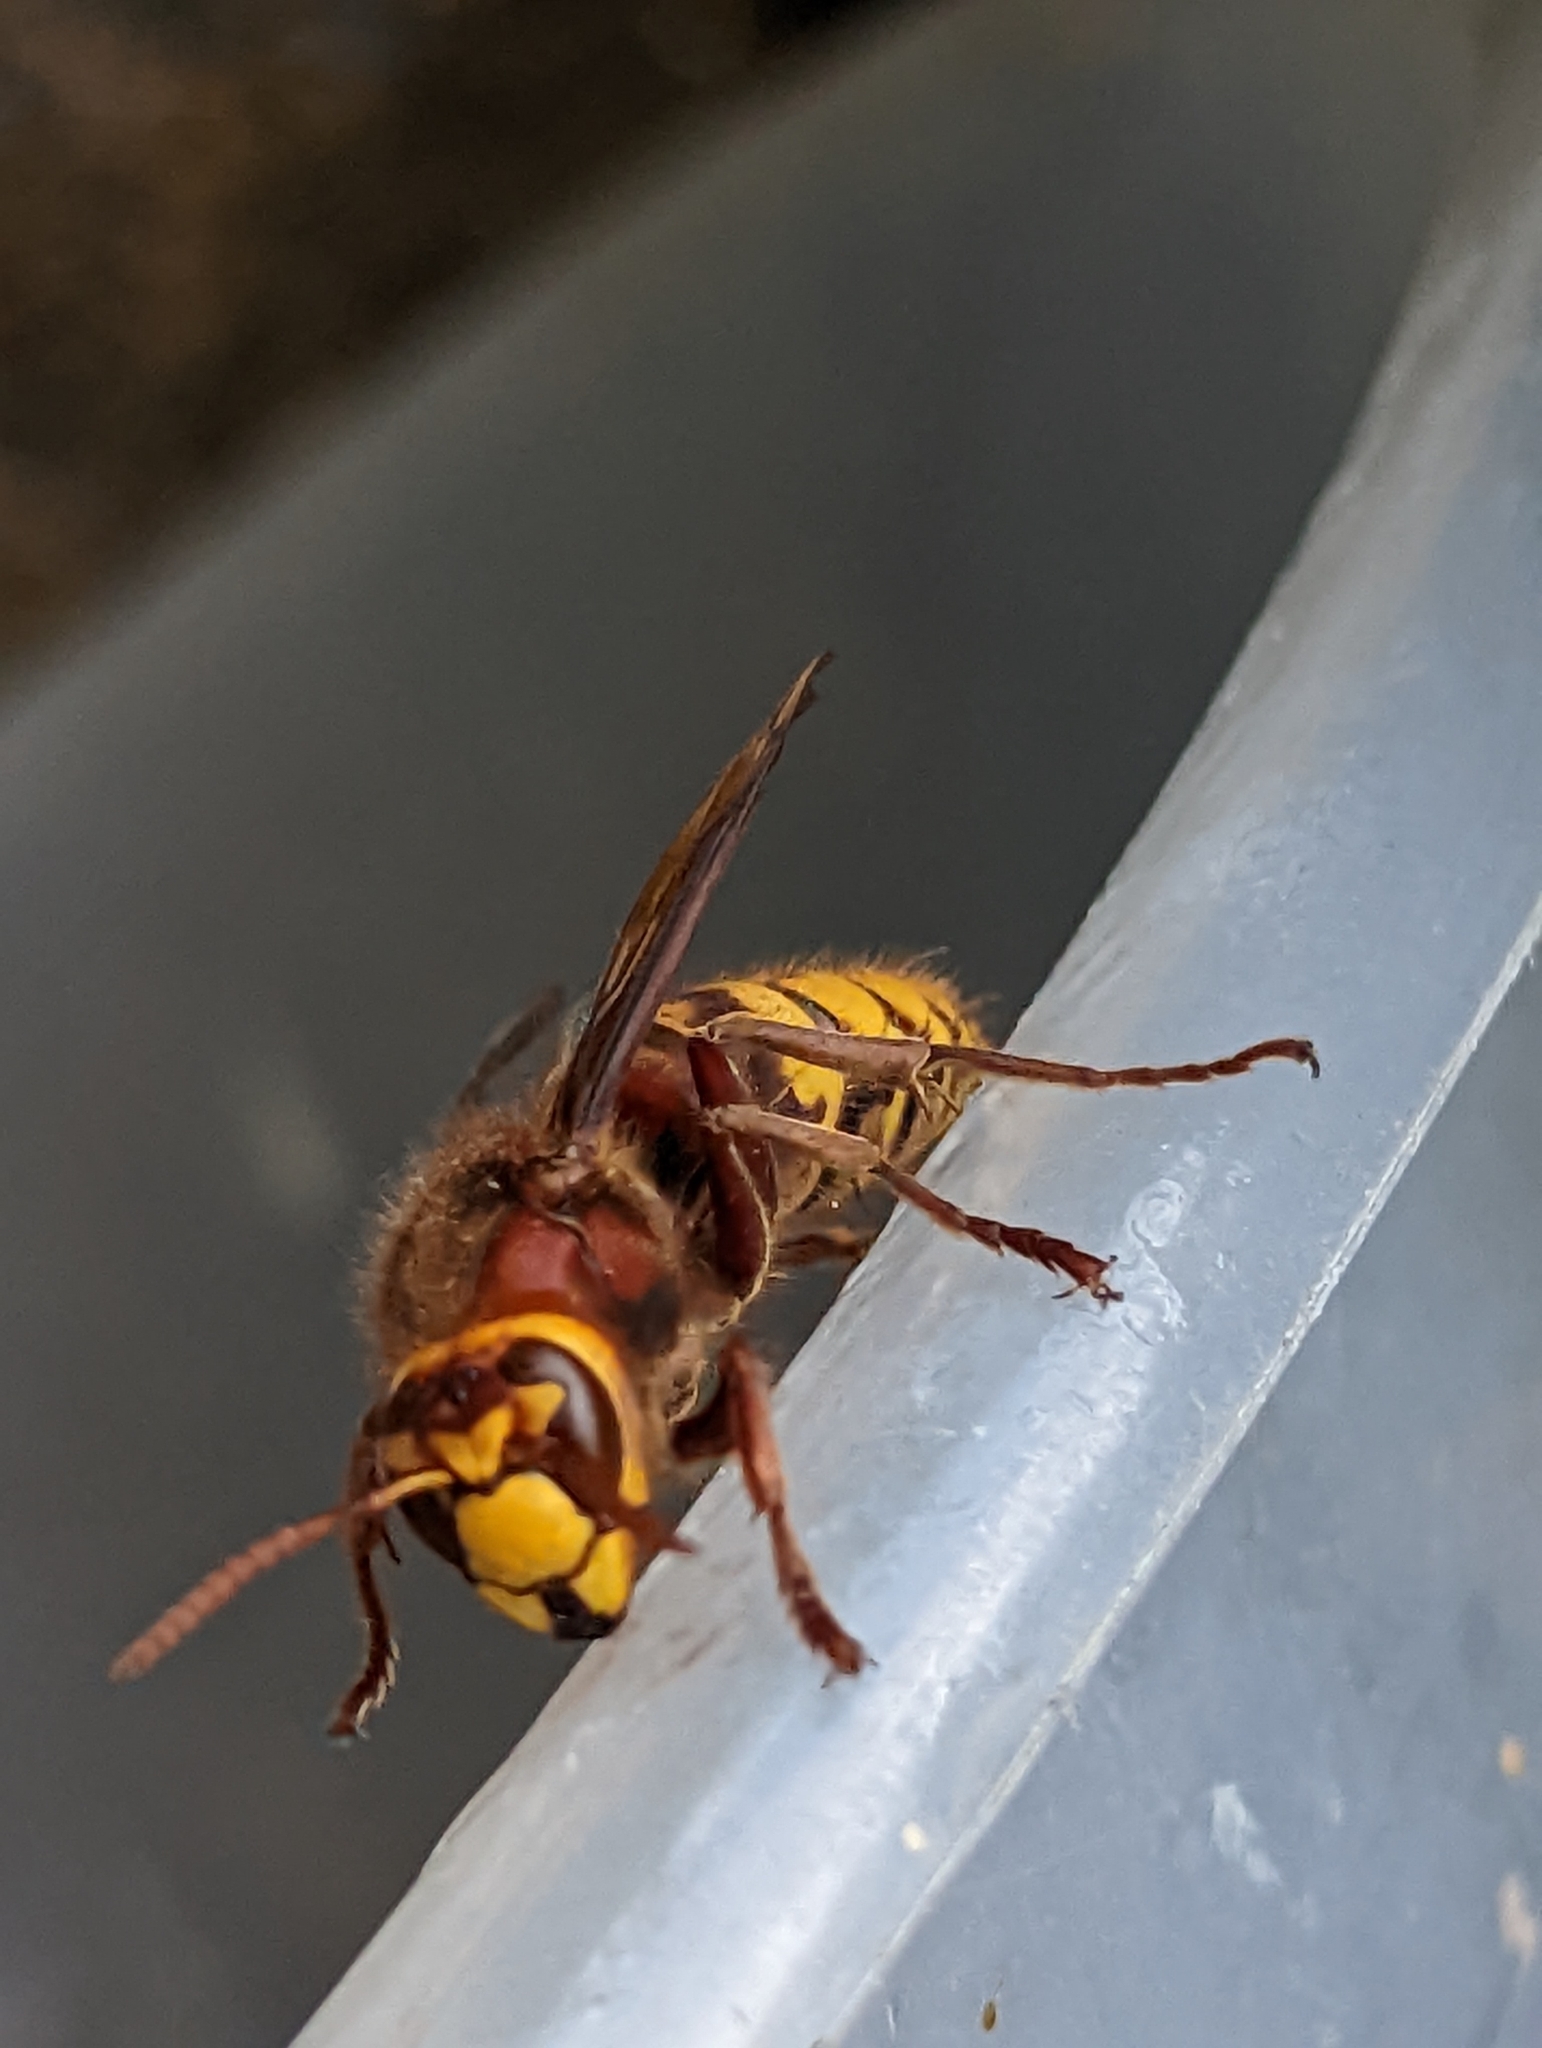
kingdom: Animalia
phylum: Arthropoda
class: Insecta
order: Hymenoptera
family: Vespidae
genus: Vespa
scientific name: Vespa crabro
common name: Hornet
